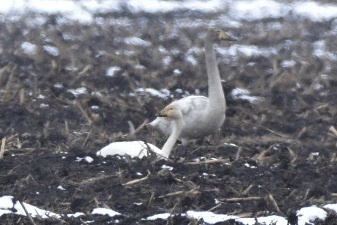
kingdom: Animalia
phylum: Chordata
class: Aves
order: Anseriformes
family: Anatidae
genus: Cygnus
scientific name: Cygnus cygnus
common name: Whooper swan
